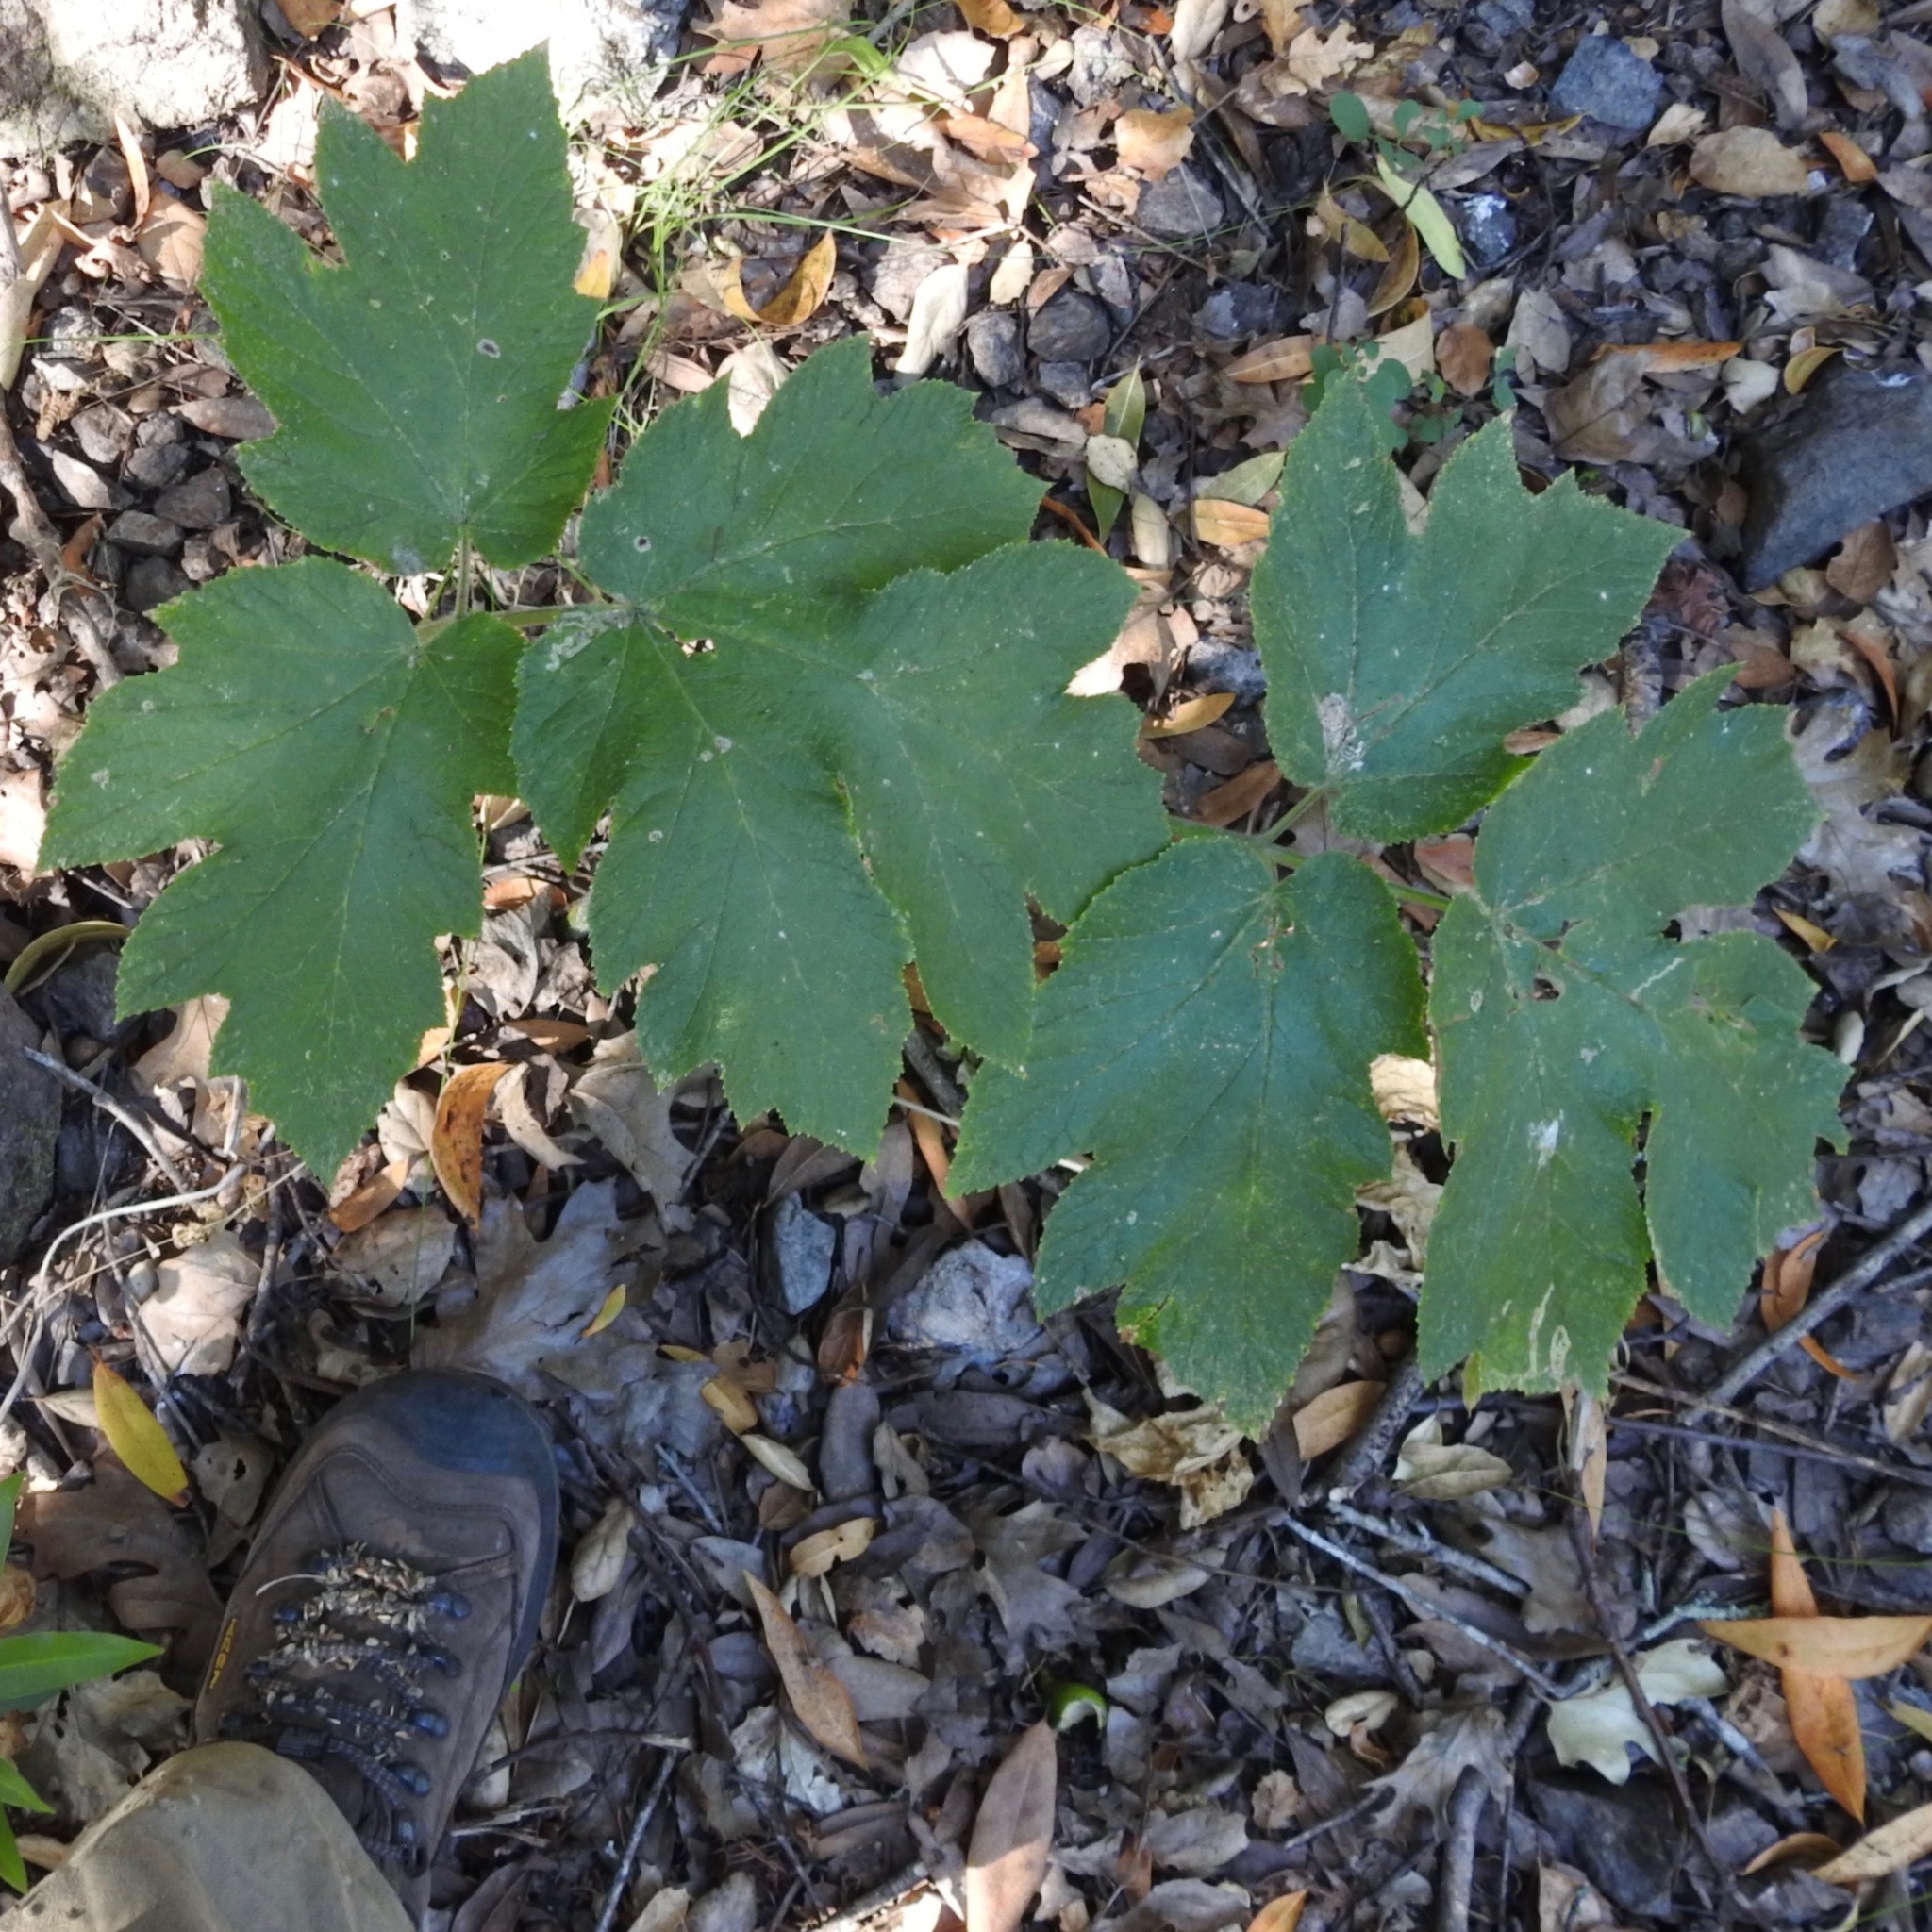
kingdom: Plantae
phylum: Tracheophyta
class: Magnoliopsida
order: Apiales
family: Apiaceae
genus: Heracleum
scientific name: Heracleum maximum
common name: American cow parsnip
